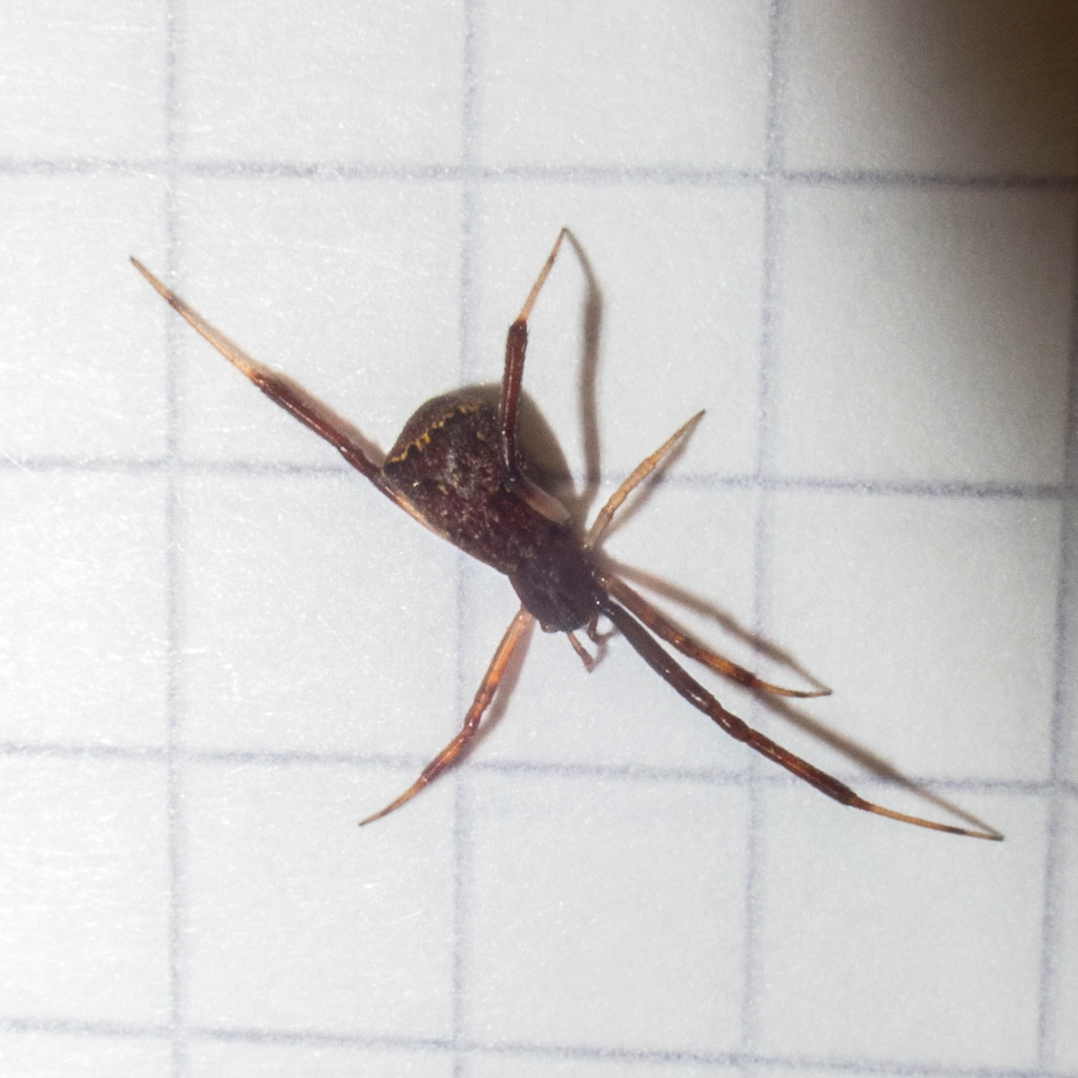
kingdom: Animalia
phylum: Arthropoda
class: Arachnida
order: Araneae
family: Theridiidae
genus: Episinus
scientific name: Episinus truncatus
